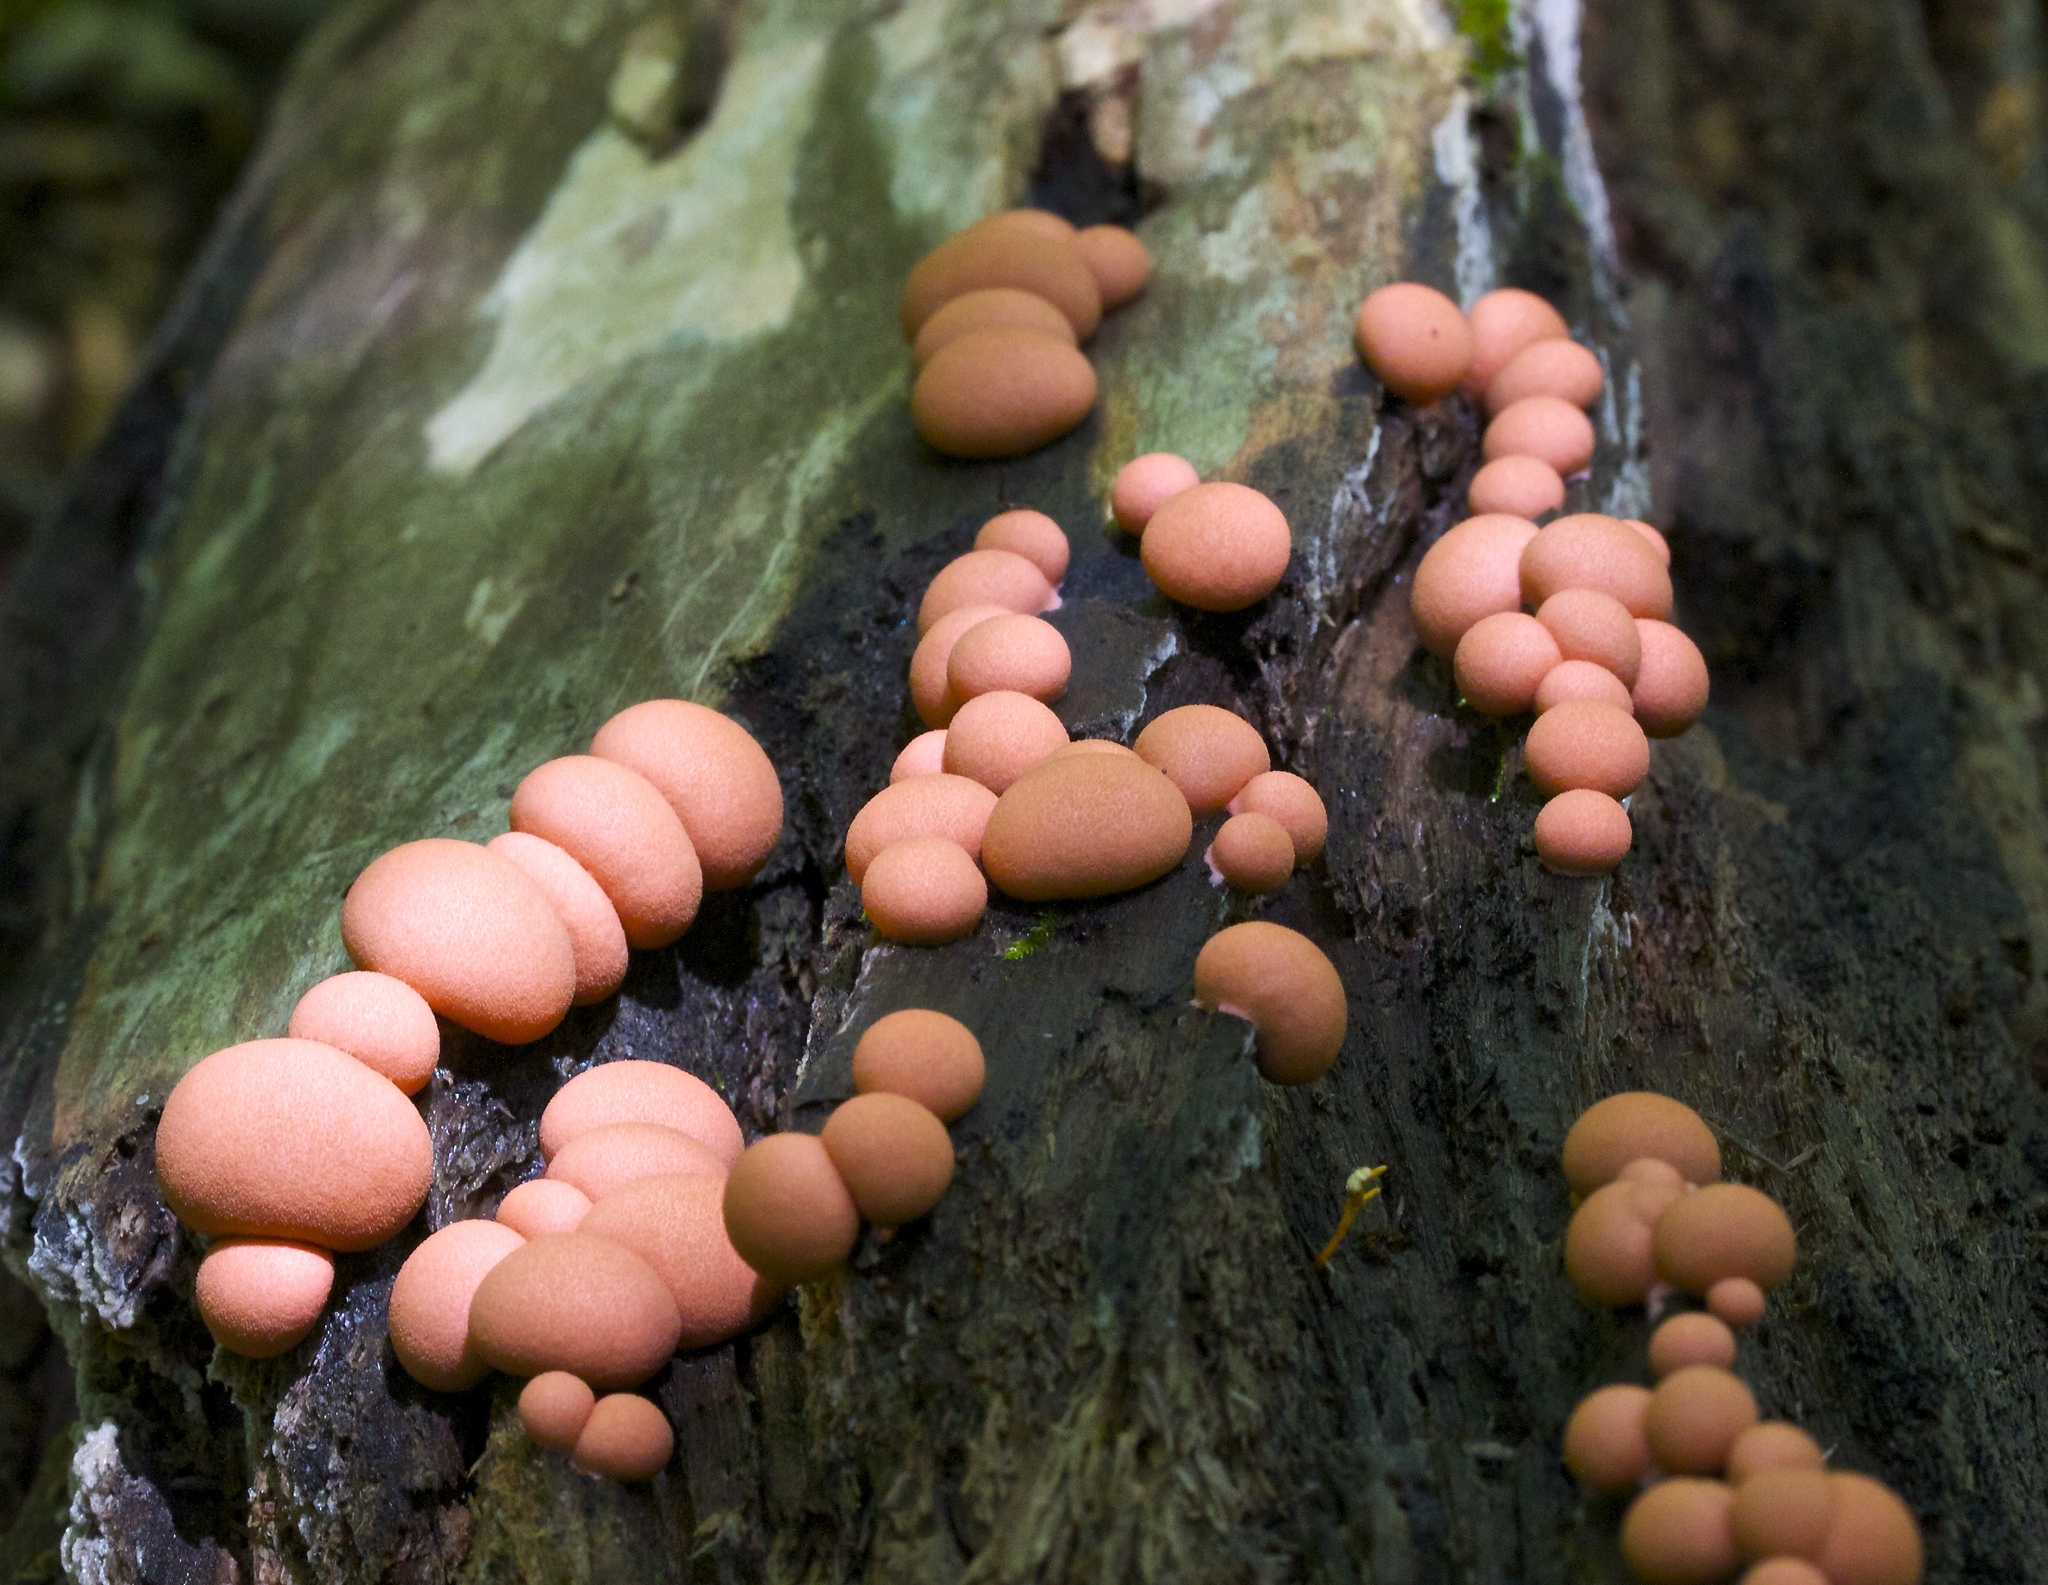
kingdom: Protozoa
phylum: Mycetozoa
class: Myxomycetes
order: Cribrariales
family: Tubiferaceae
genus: Lycogala
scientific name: Lycogala epidendrum
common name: Wolf's milk
